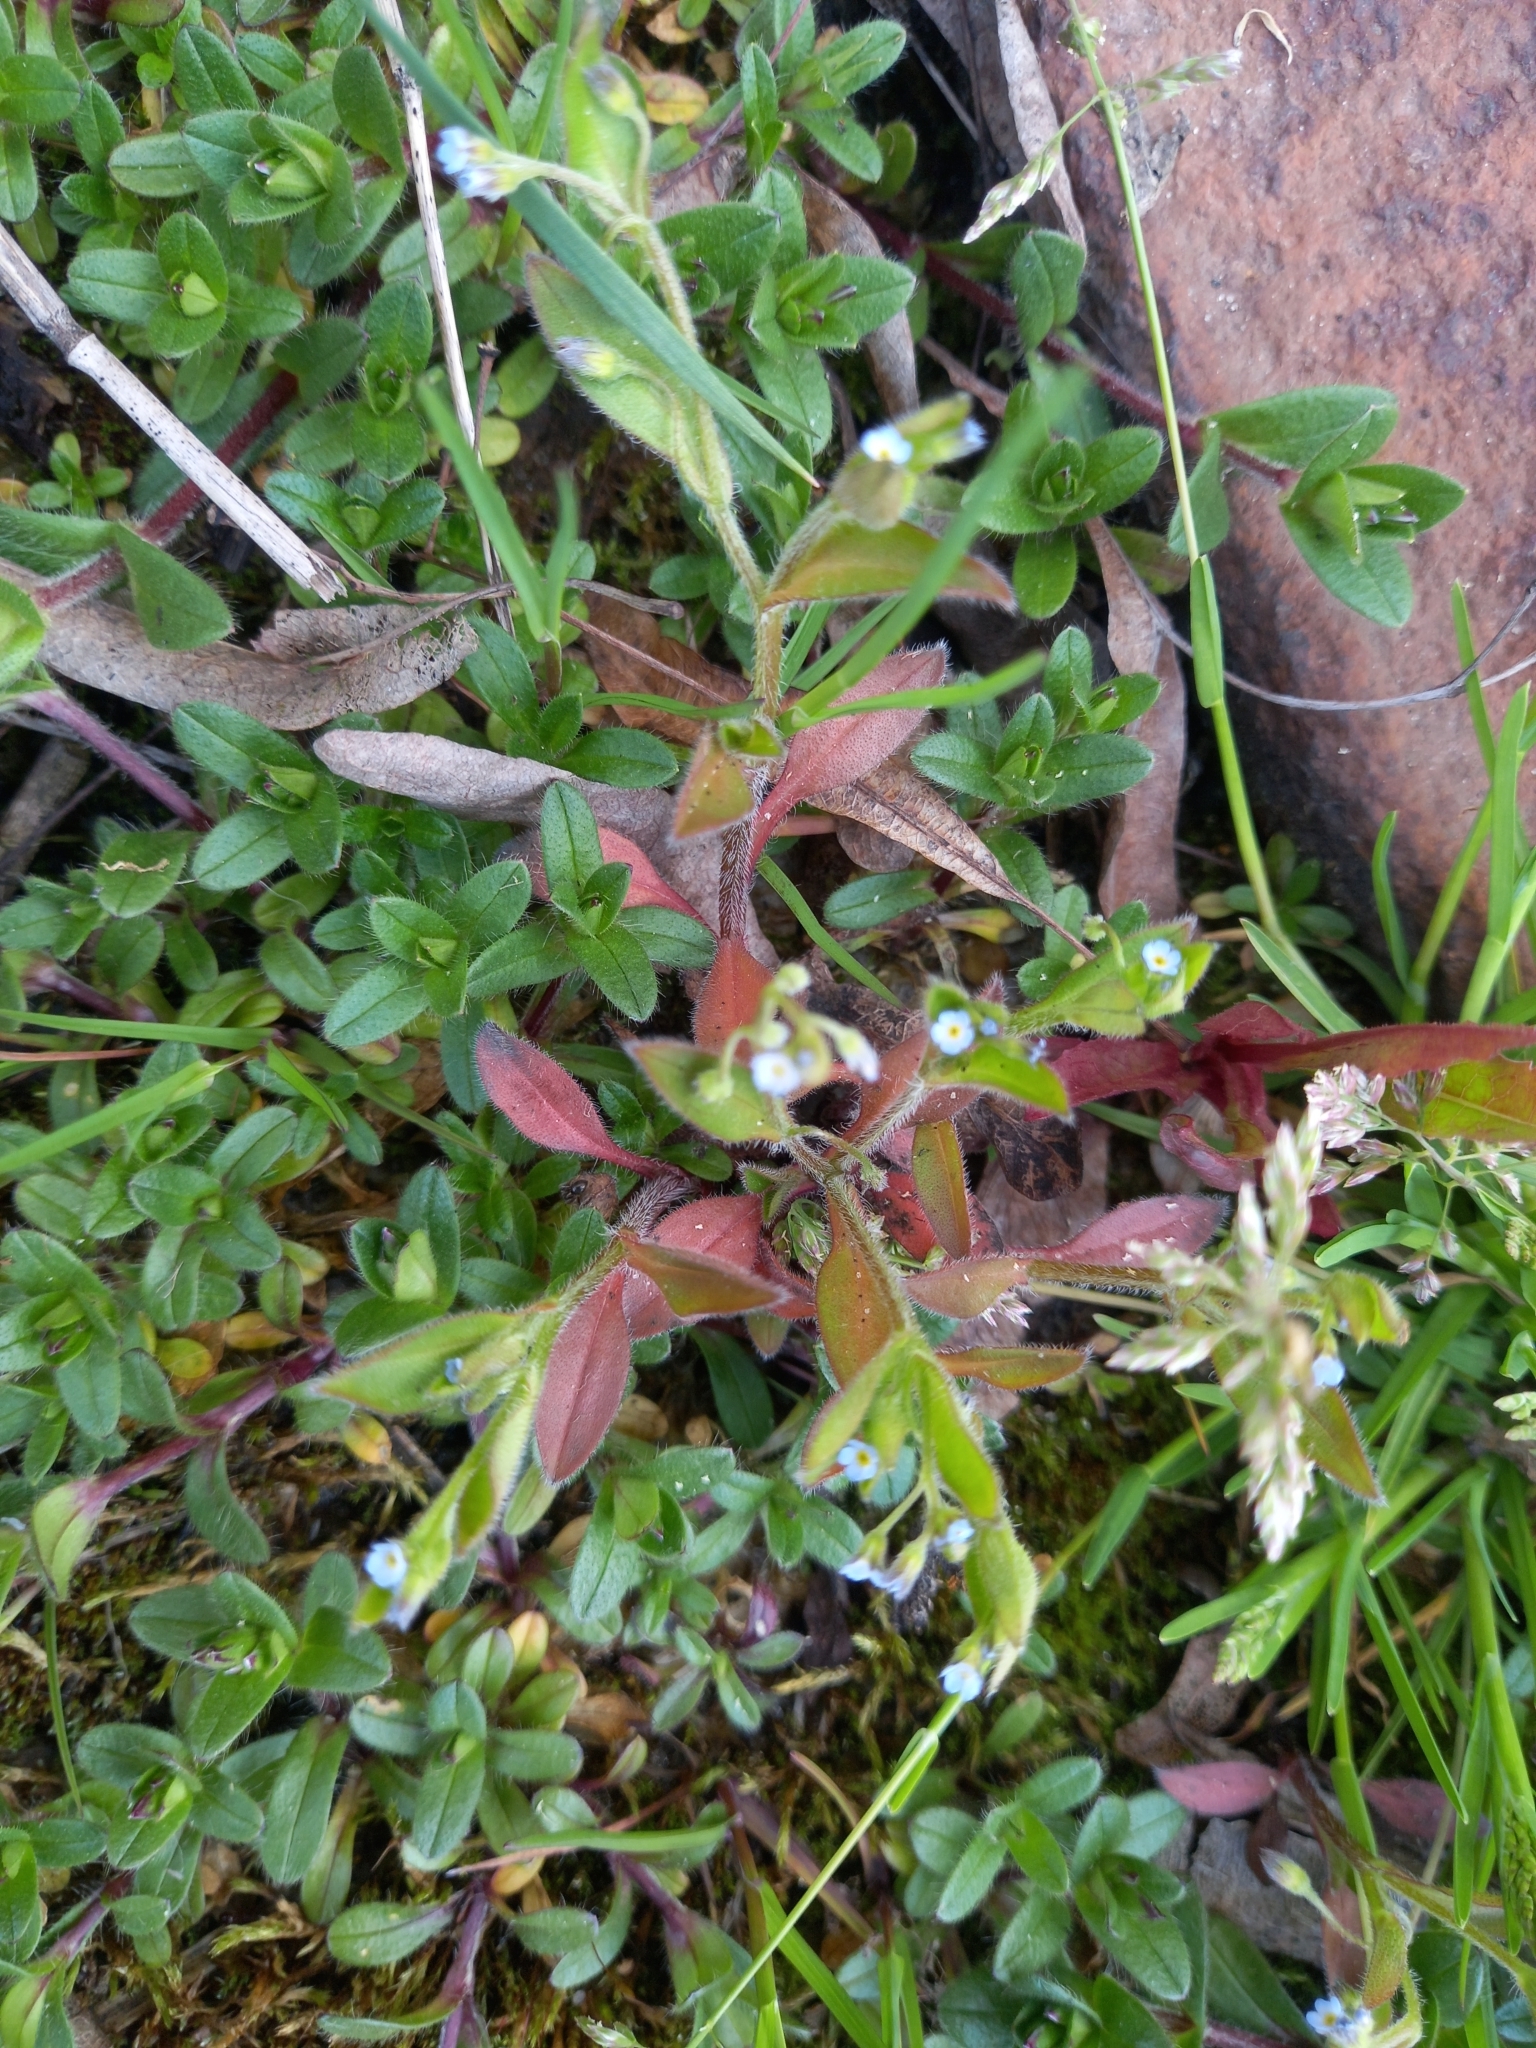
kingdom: Plantae
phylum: Tracheophyta
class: Magnoliopsida
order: Boraginales
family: Boraginaceae
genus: Myosotis
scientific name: Myosotis sparsiflora
